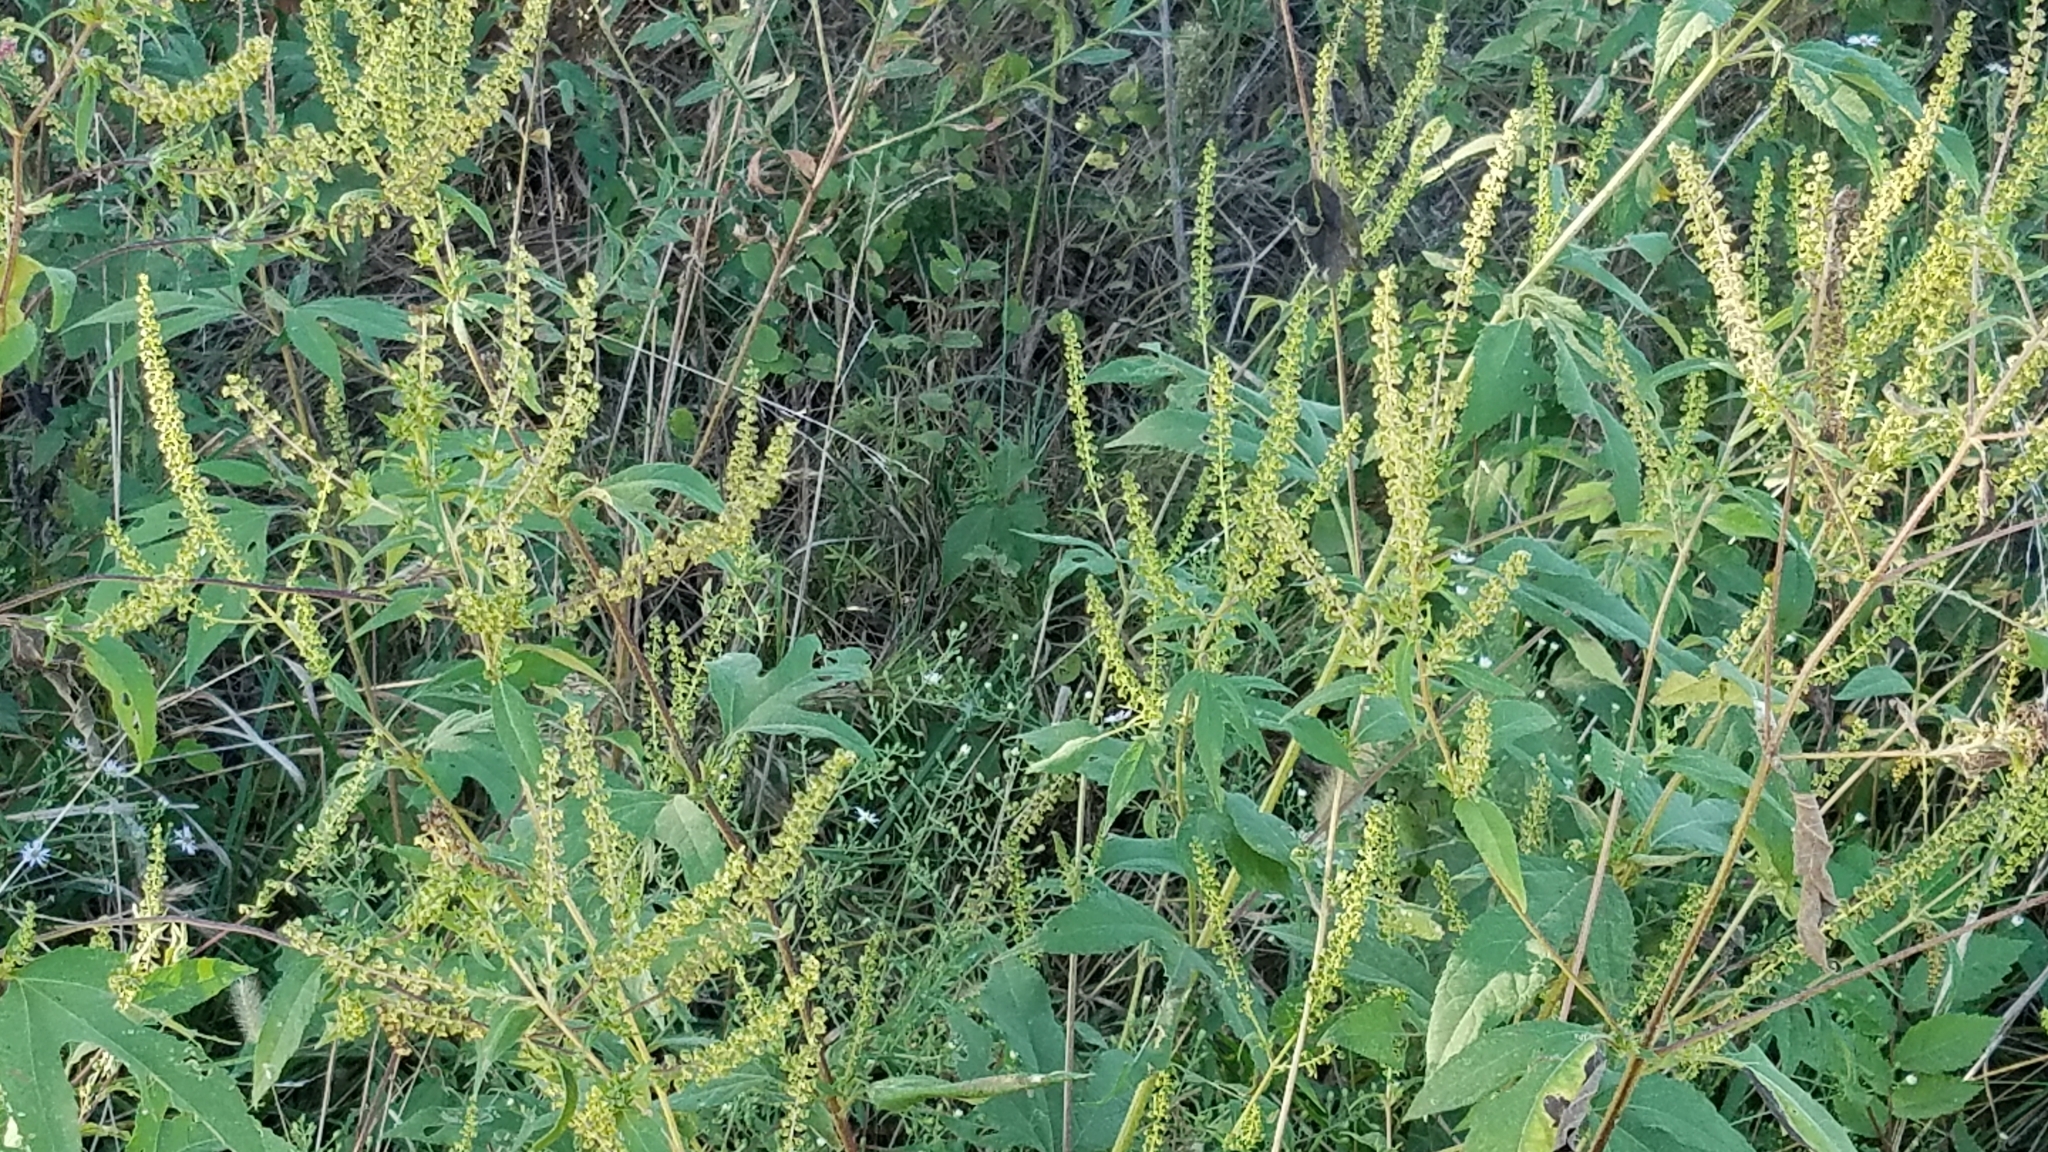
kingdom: Plantae
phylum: Tracheophyta
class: Magnoliopsida
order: Asterales
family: Asteraceae
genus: Ambrosia
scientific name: Ambrosia trifida
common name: Giant ragweed
